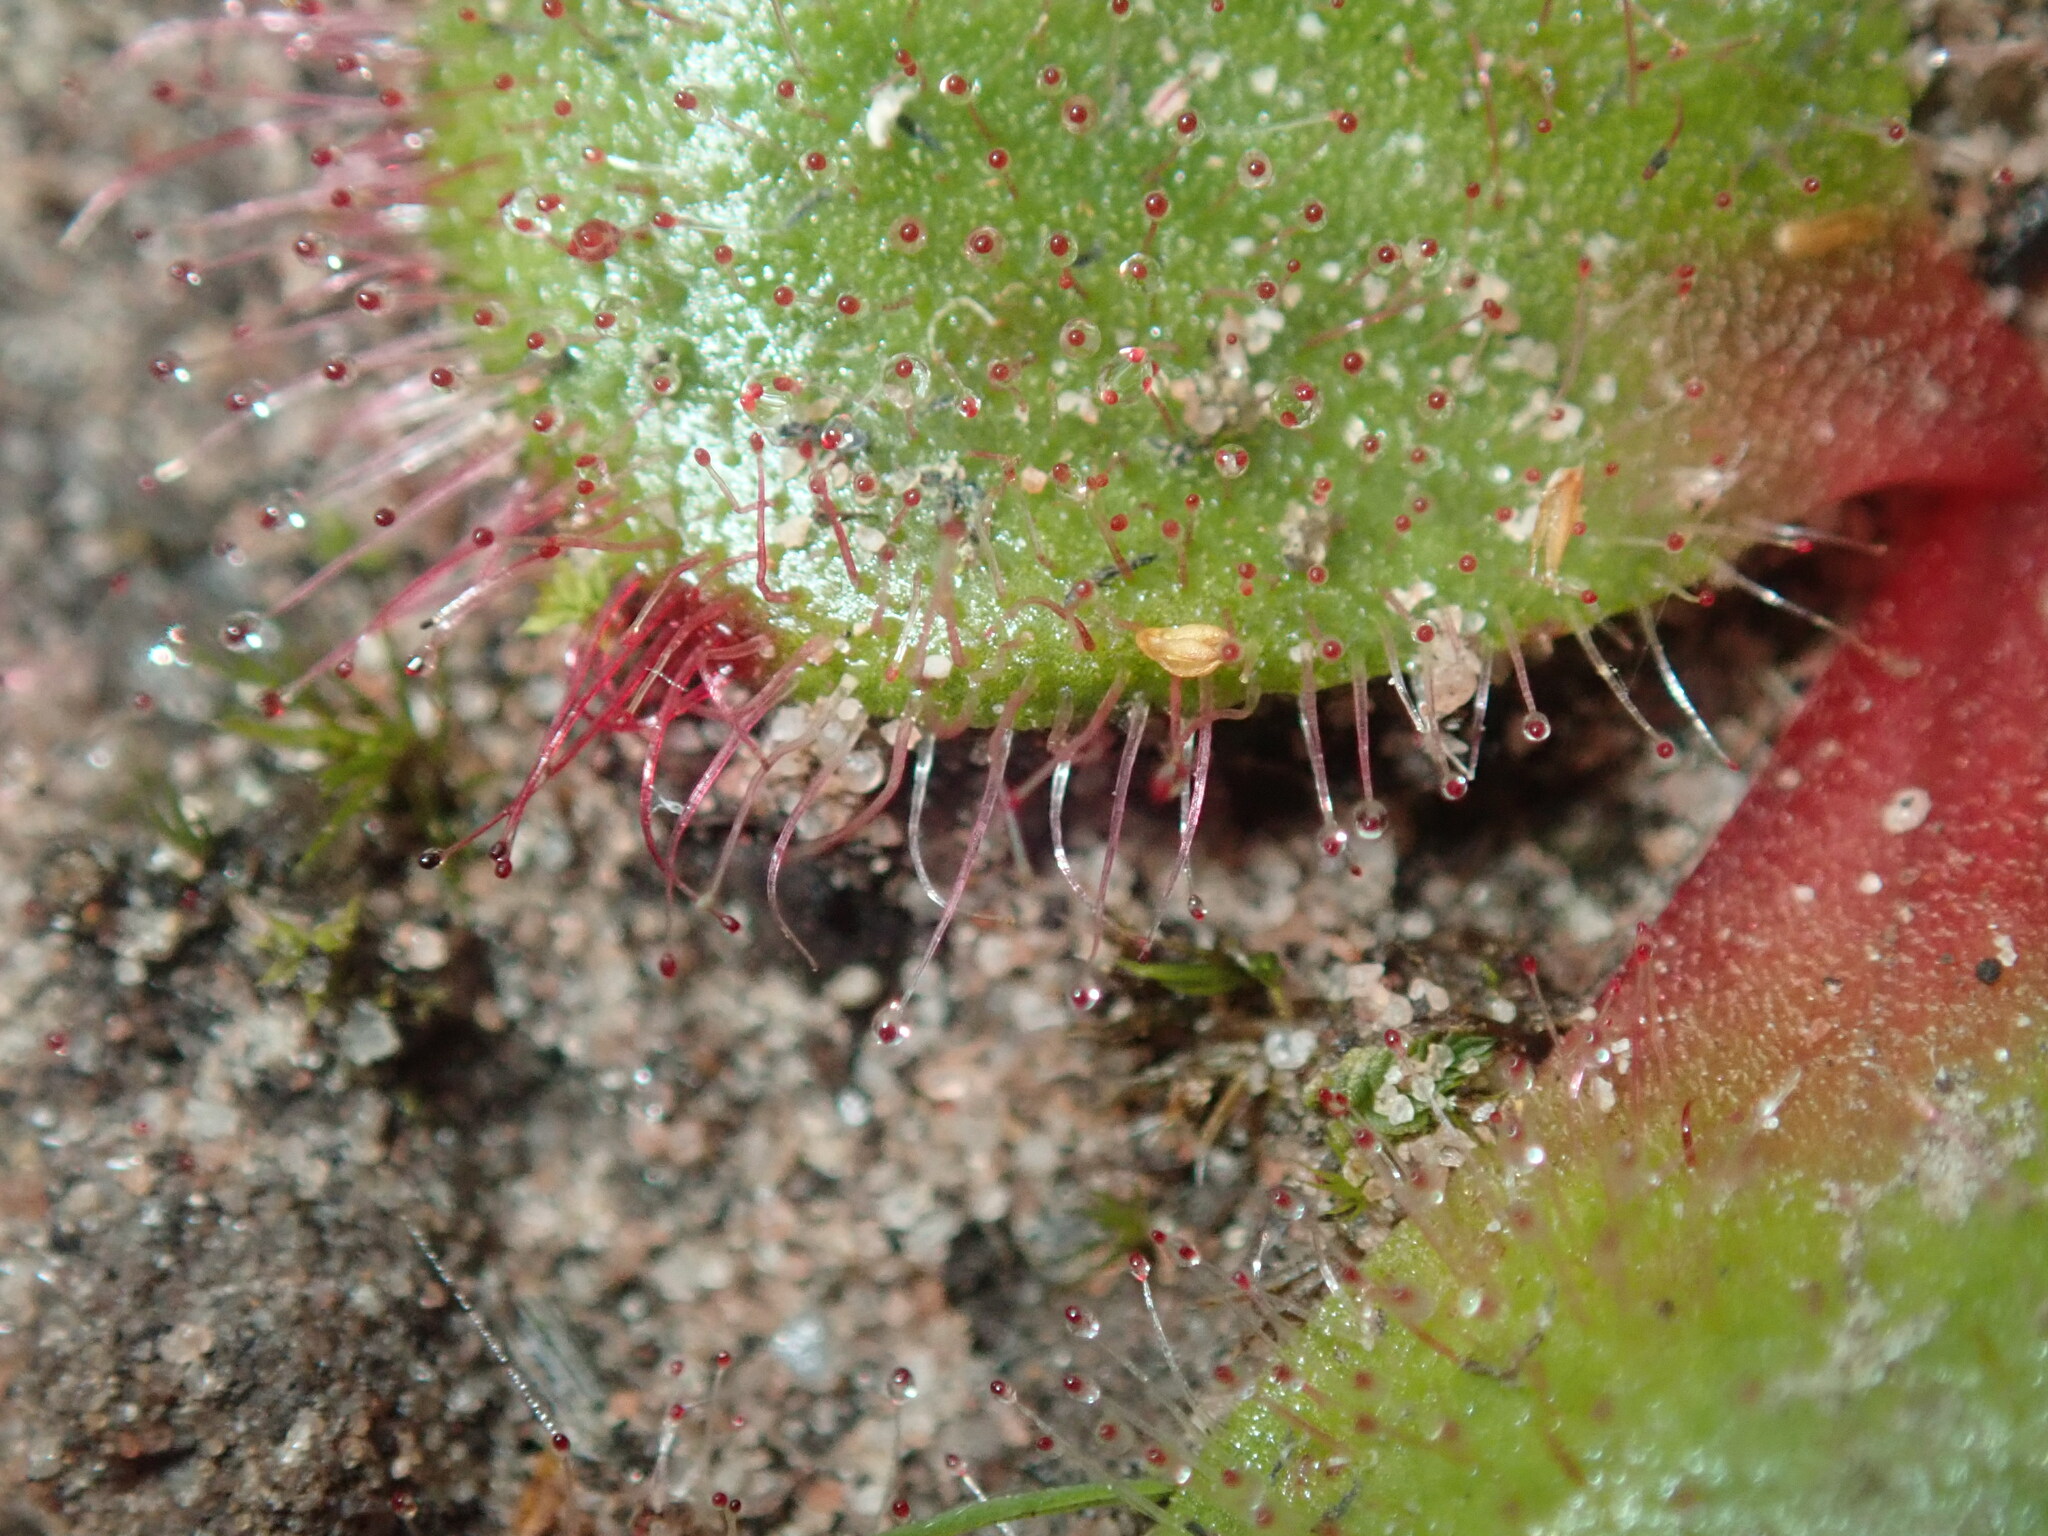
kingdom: Plantae
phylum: Tracheophyta
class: Magnoliopsida
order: Caryophyllales
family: Droseraceae
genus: Drosera
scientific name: Drosera erythrorhiza
